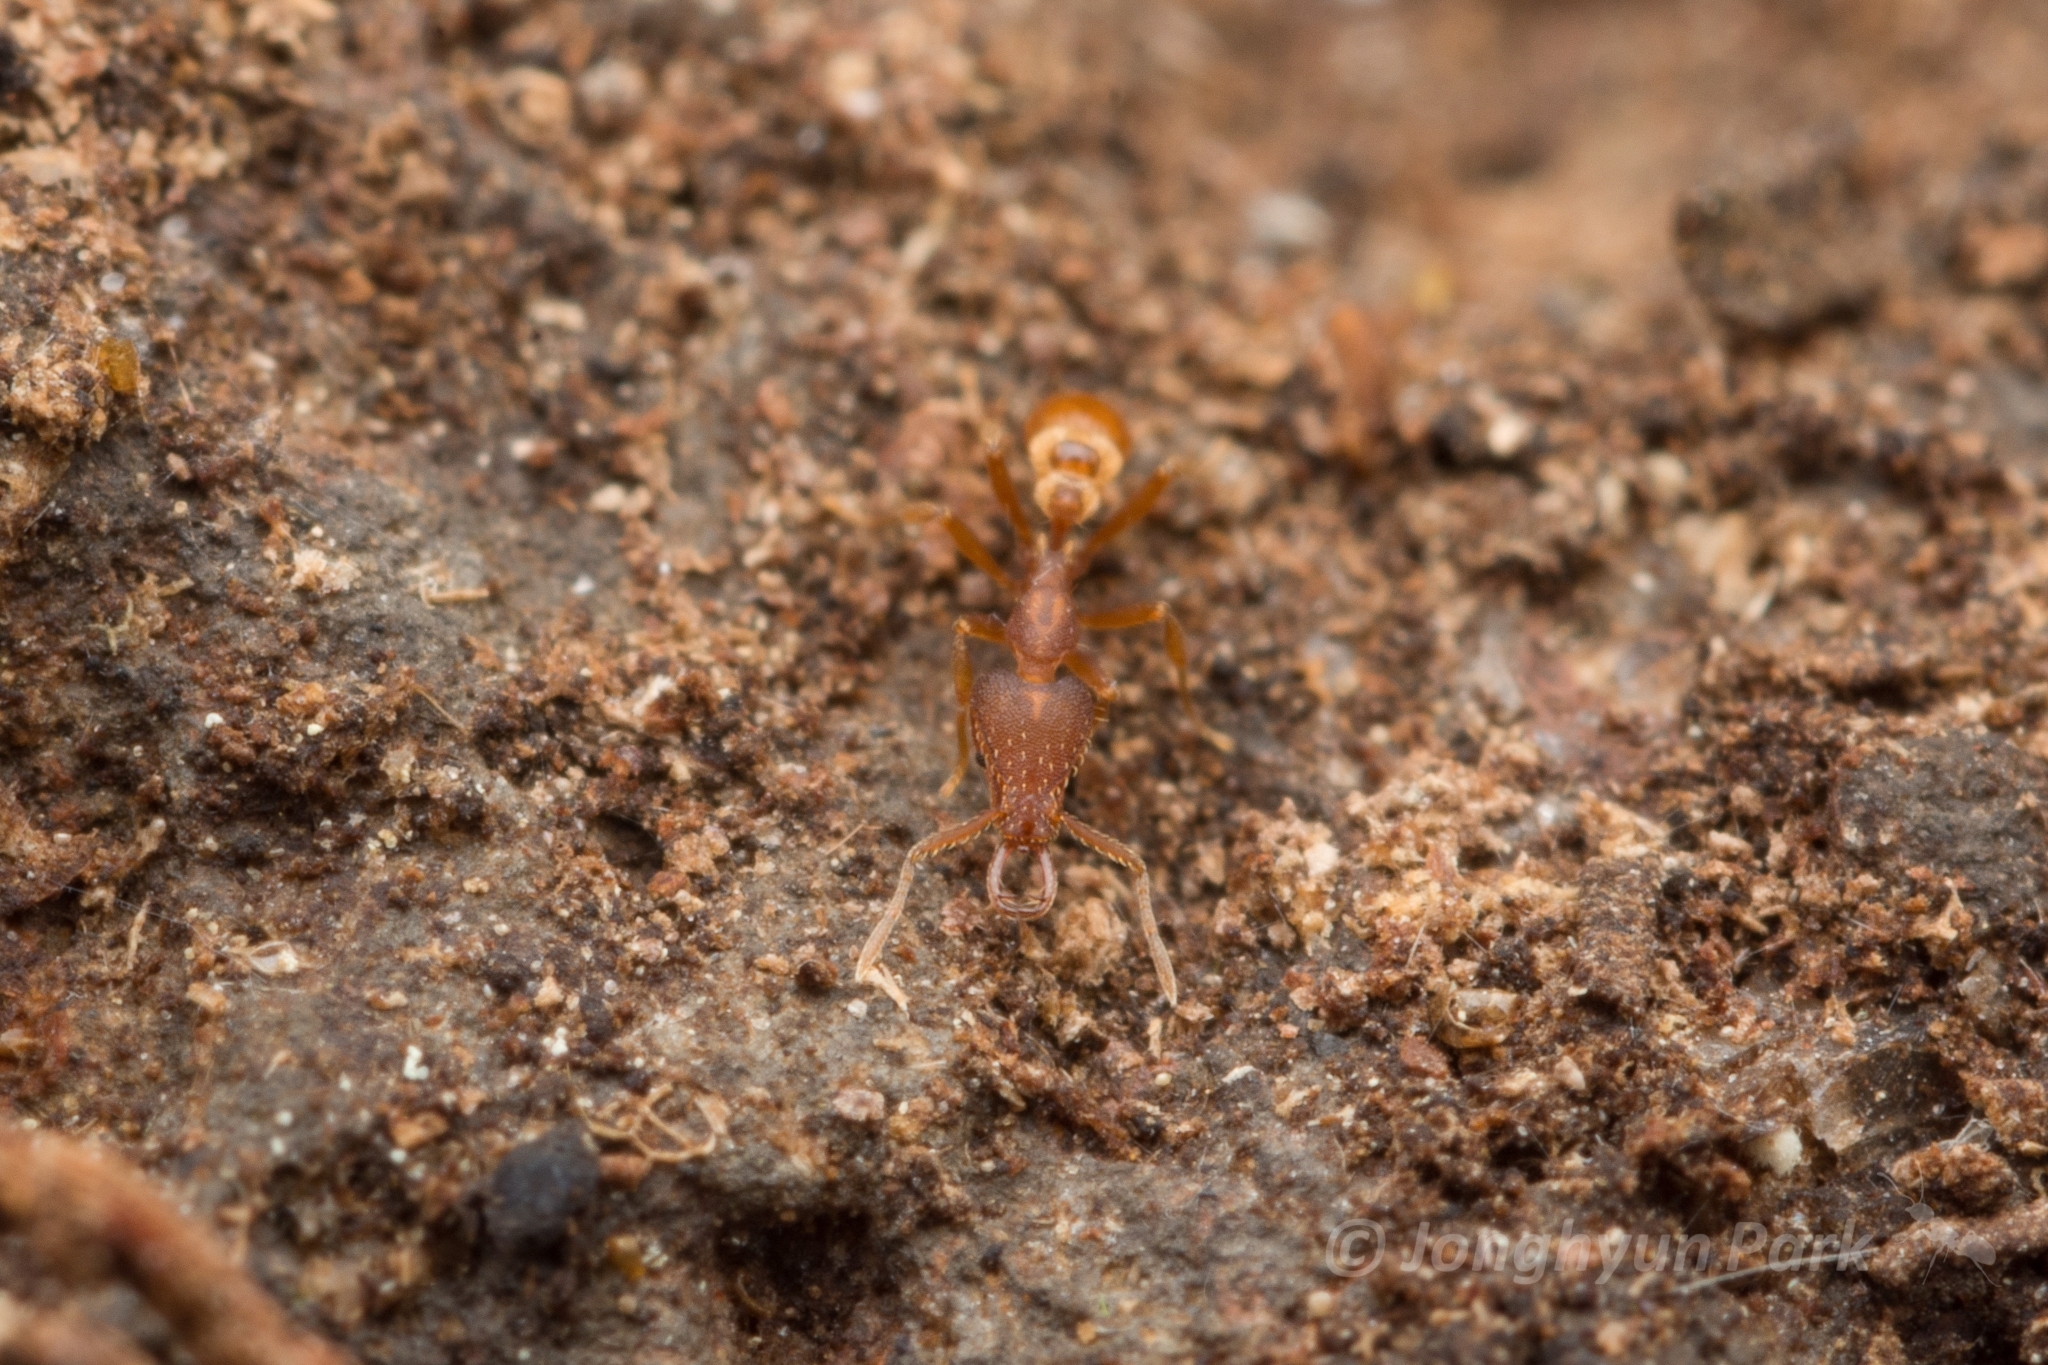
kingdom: Animalia
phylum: Arthropoda
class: Insecta
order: Hymenoptera
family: Formicidae
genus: Strumigenys
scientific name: Strumigenys lewisi
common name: Ant
